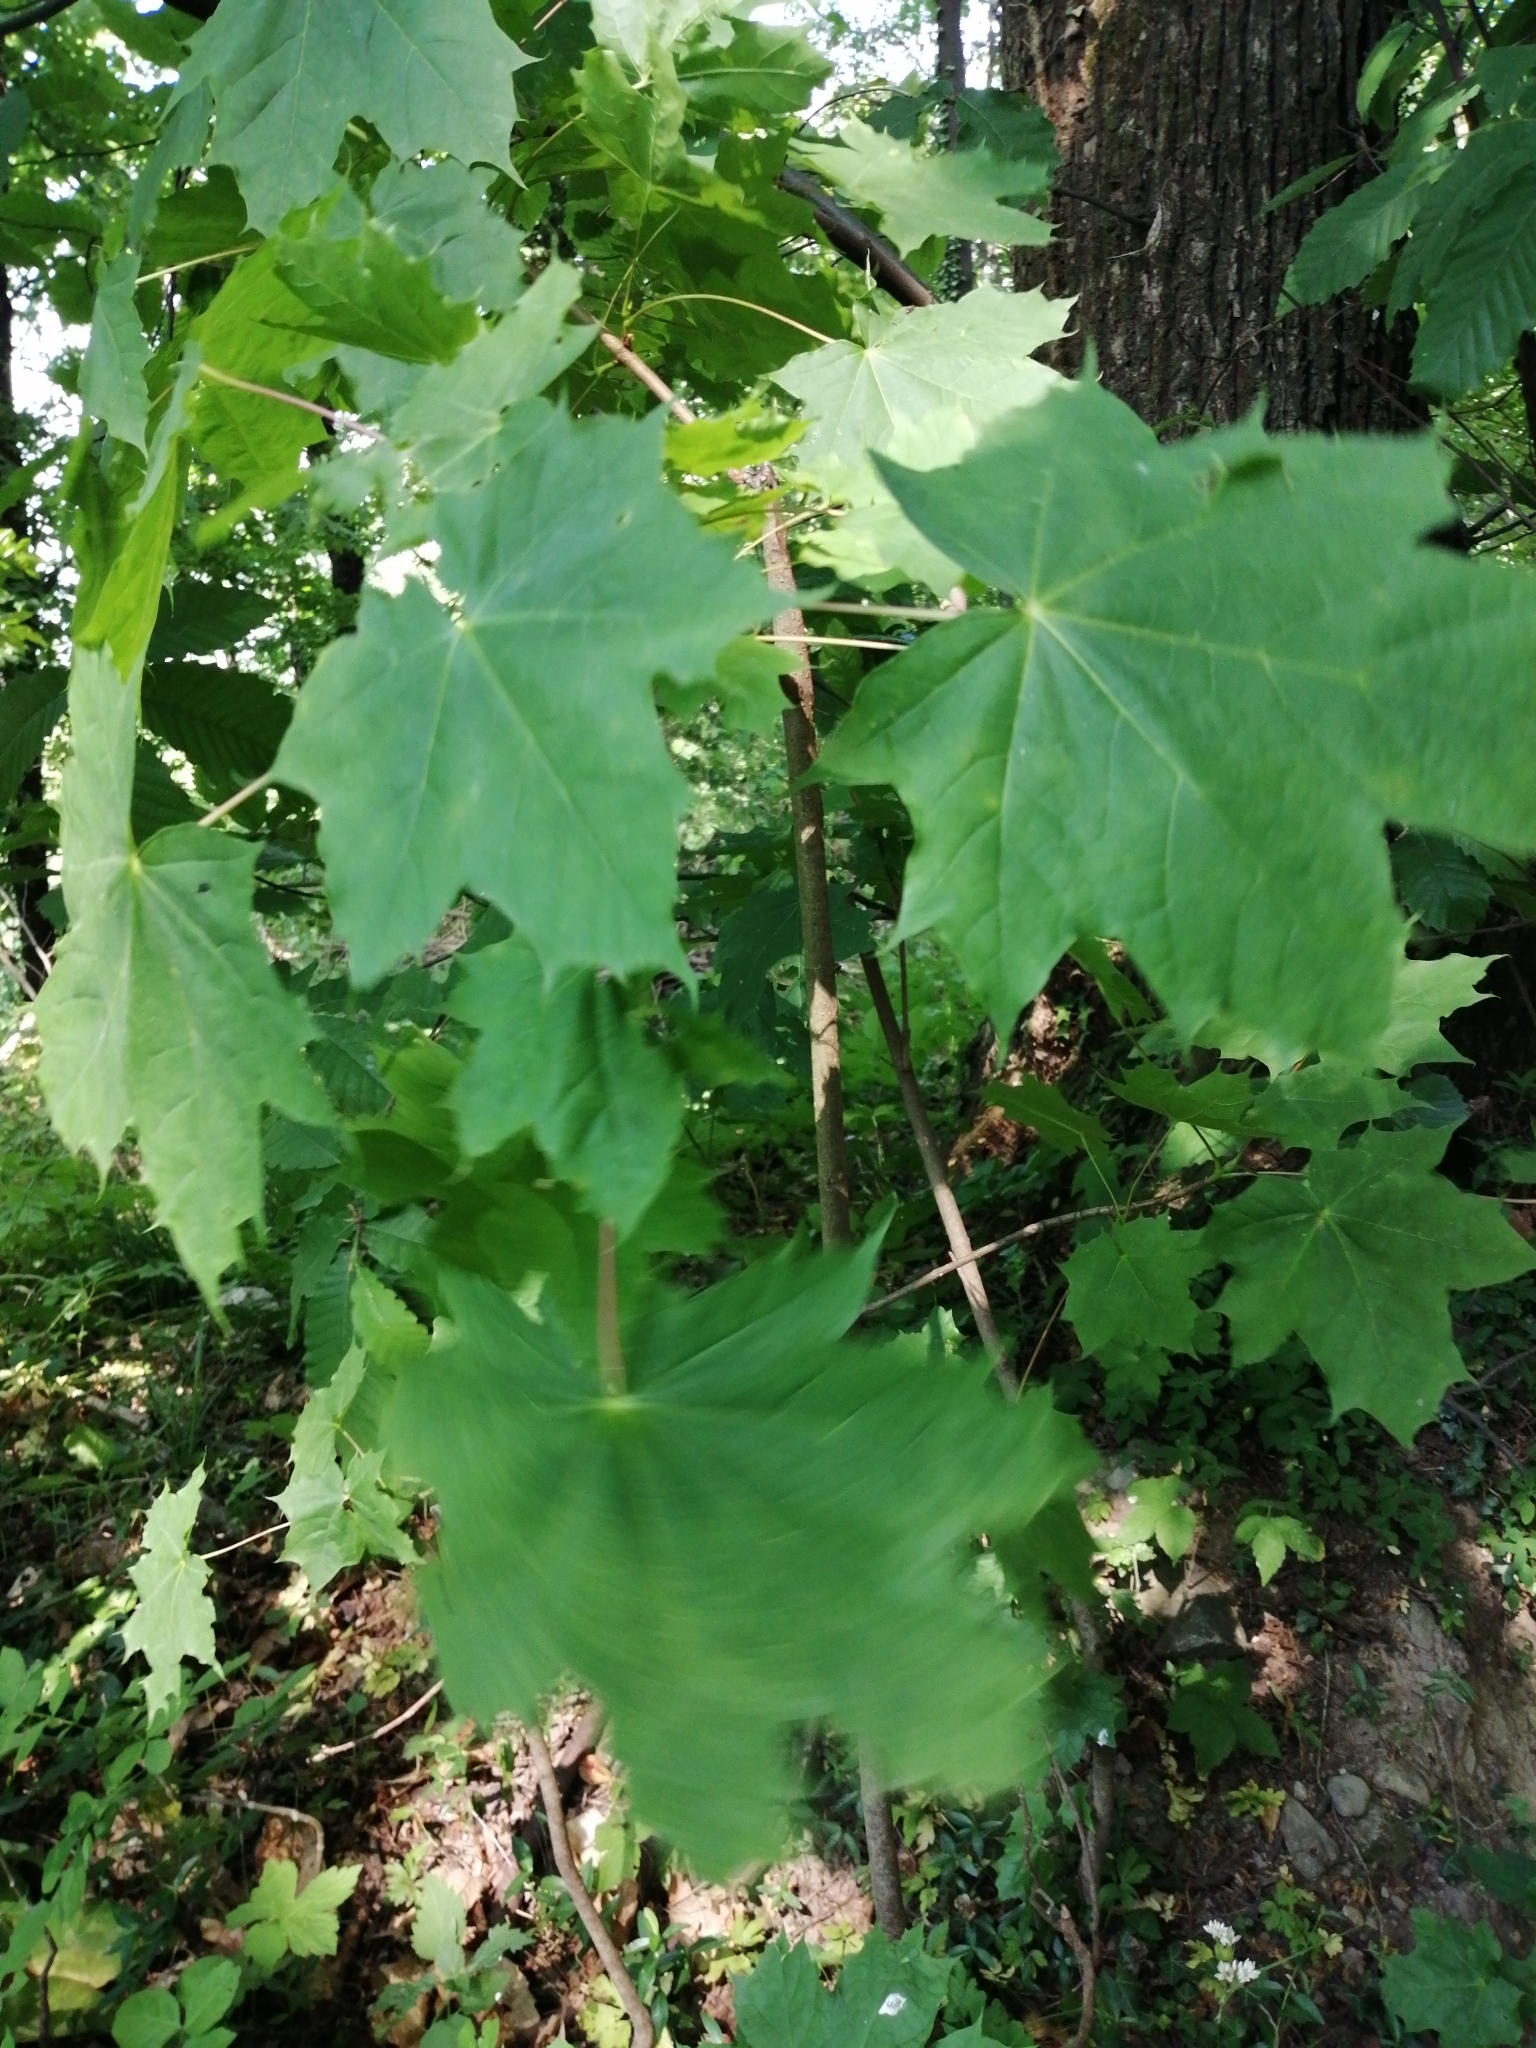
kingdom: Plantae
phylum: Tracheophyta
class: Magnoliopsida
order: Sapindales
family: Sapindaceae
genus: Acer
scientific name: Acer pseudoplatanus
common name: Sycamore
